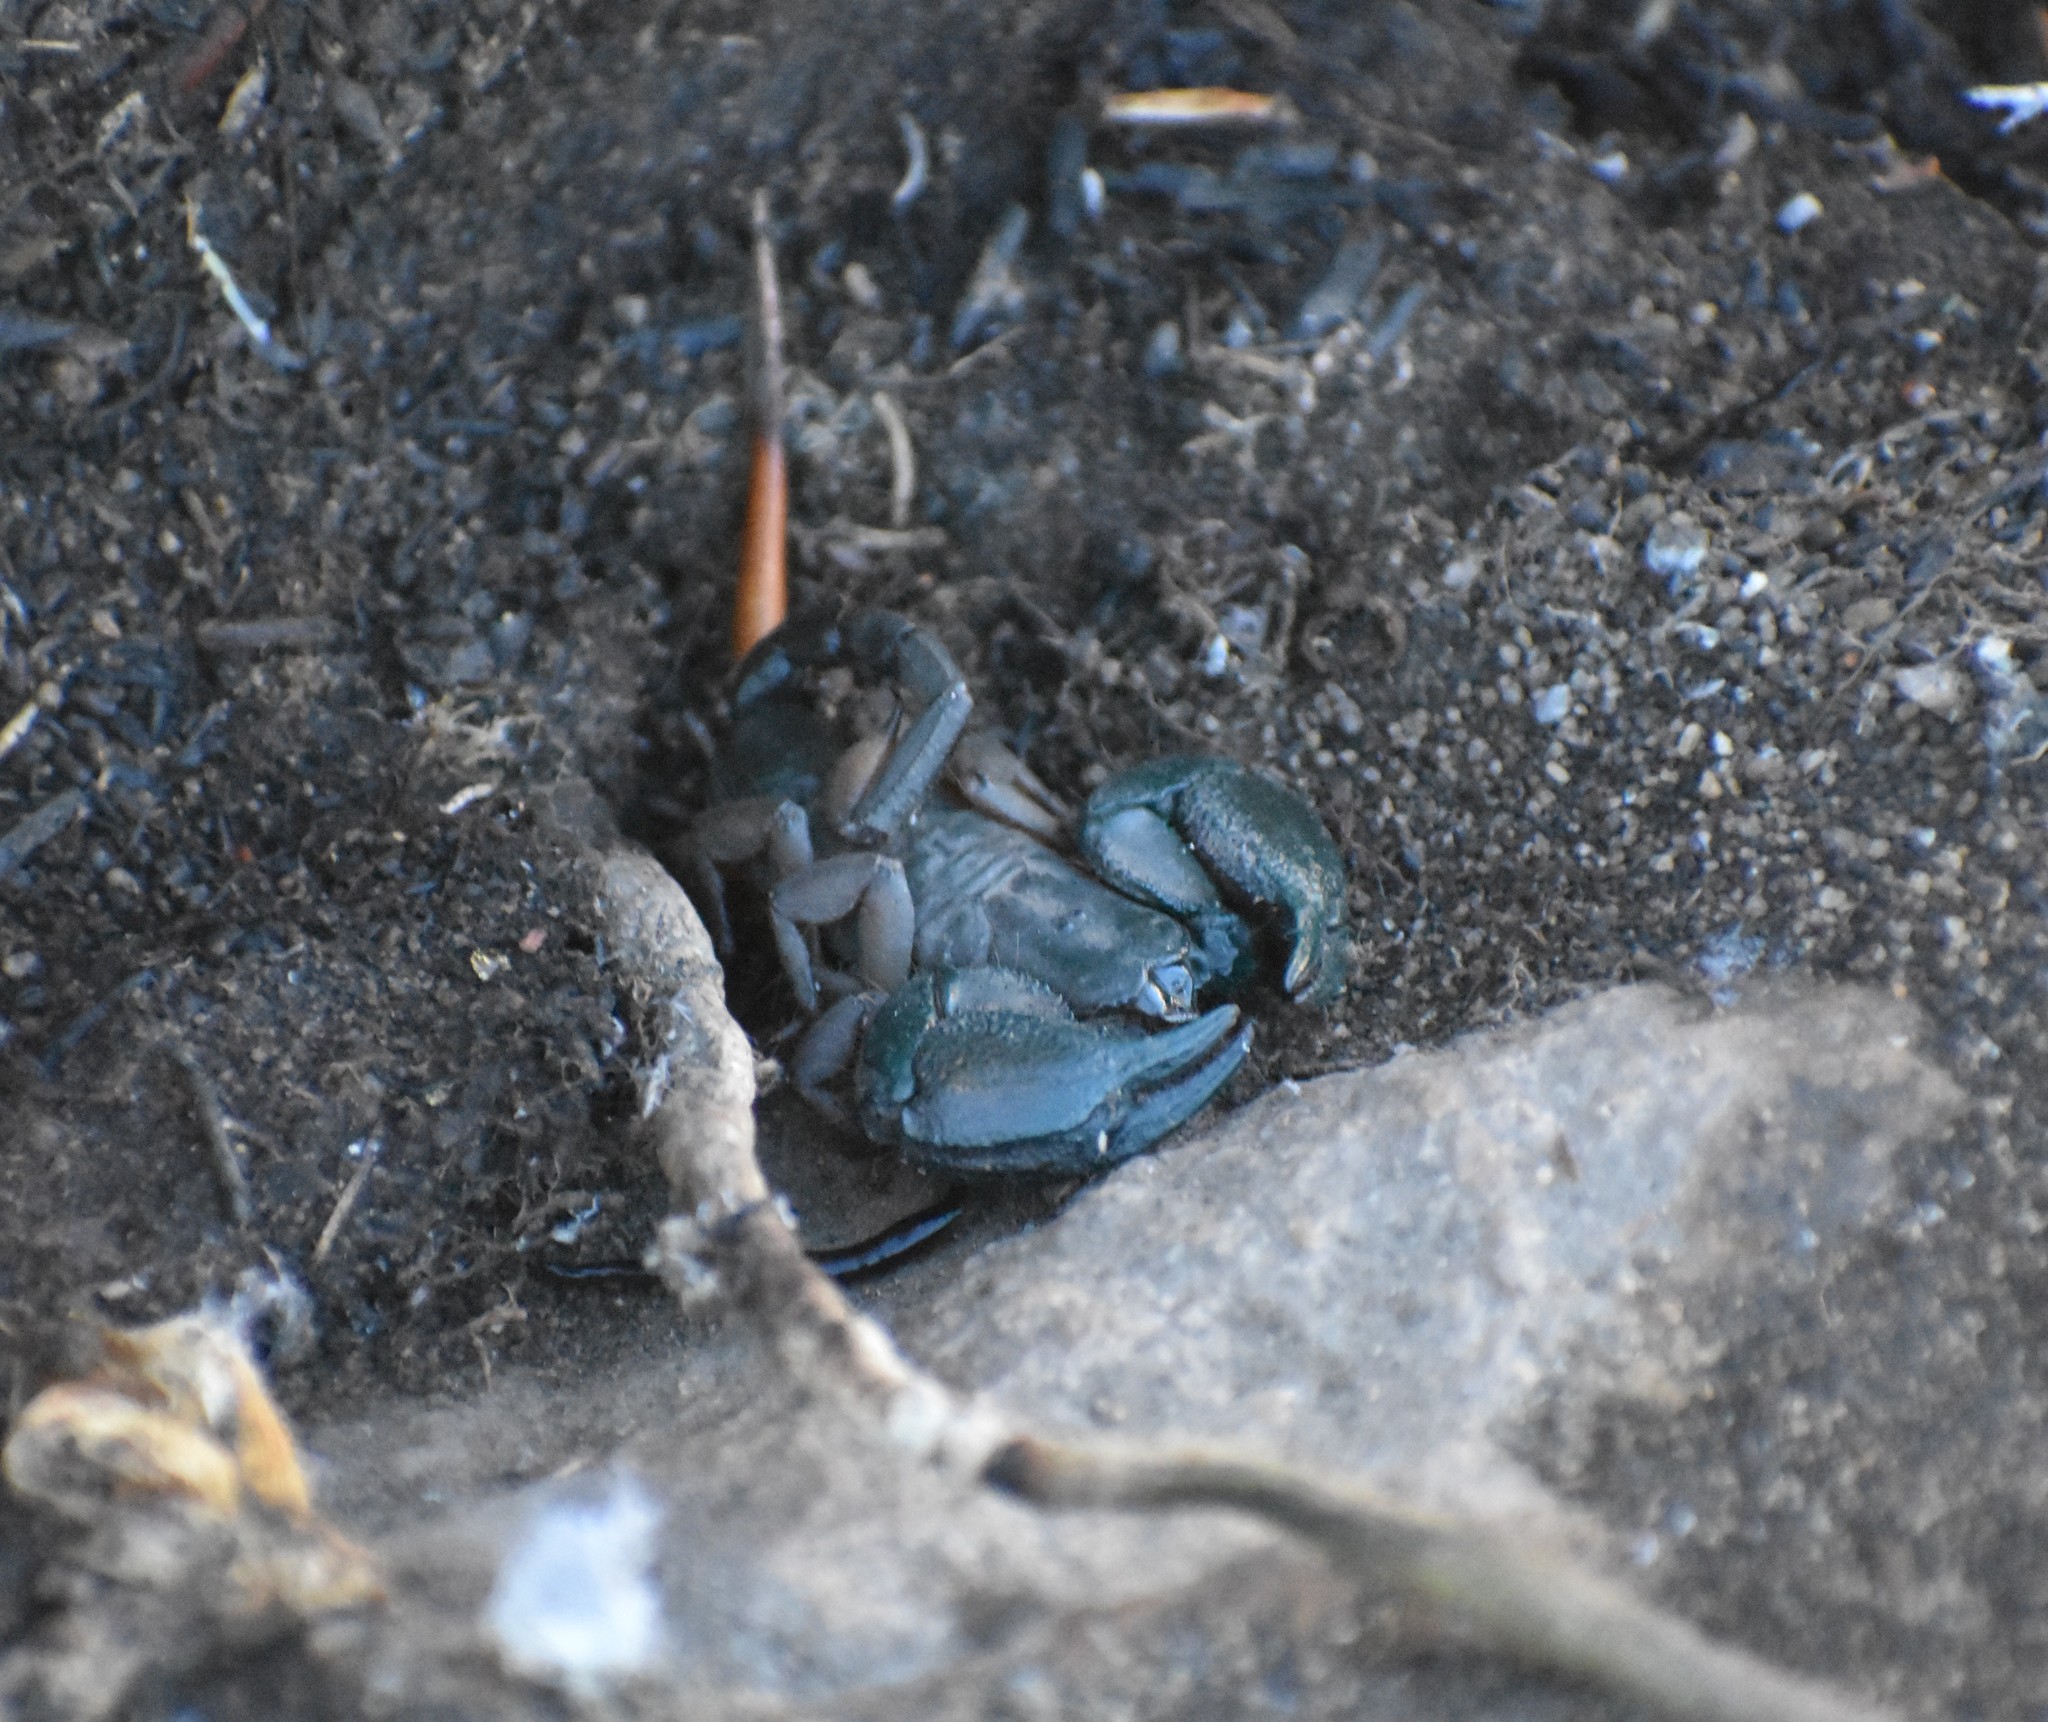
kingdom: Animalia
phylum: Arthropoda
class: Arachnida
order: Scorpiones
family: Hormuridae
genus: Opisthacanthus
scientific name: Opisthacanthus diremptus
